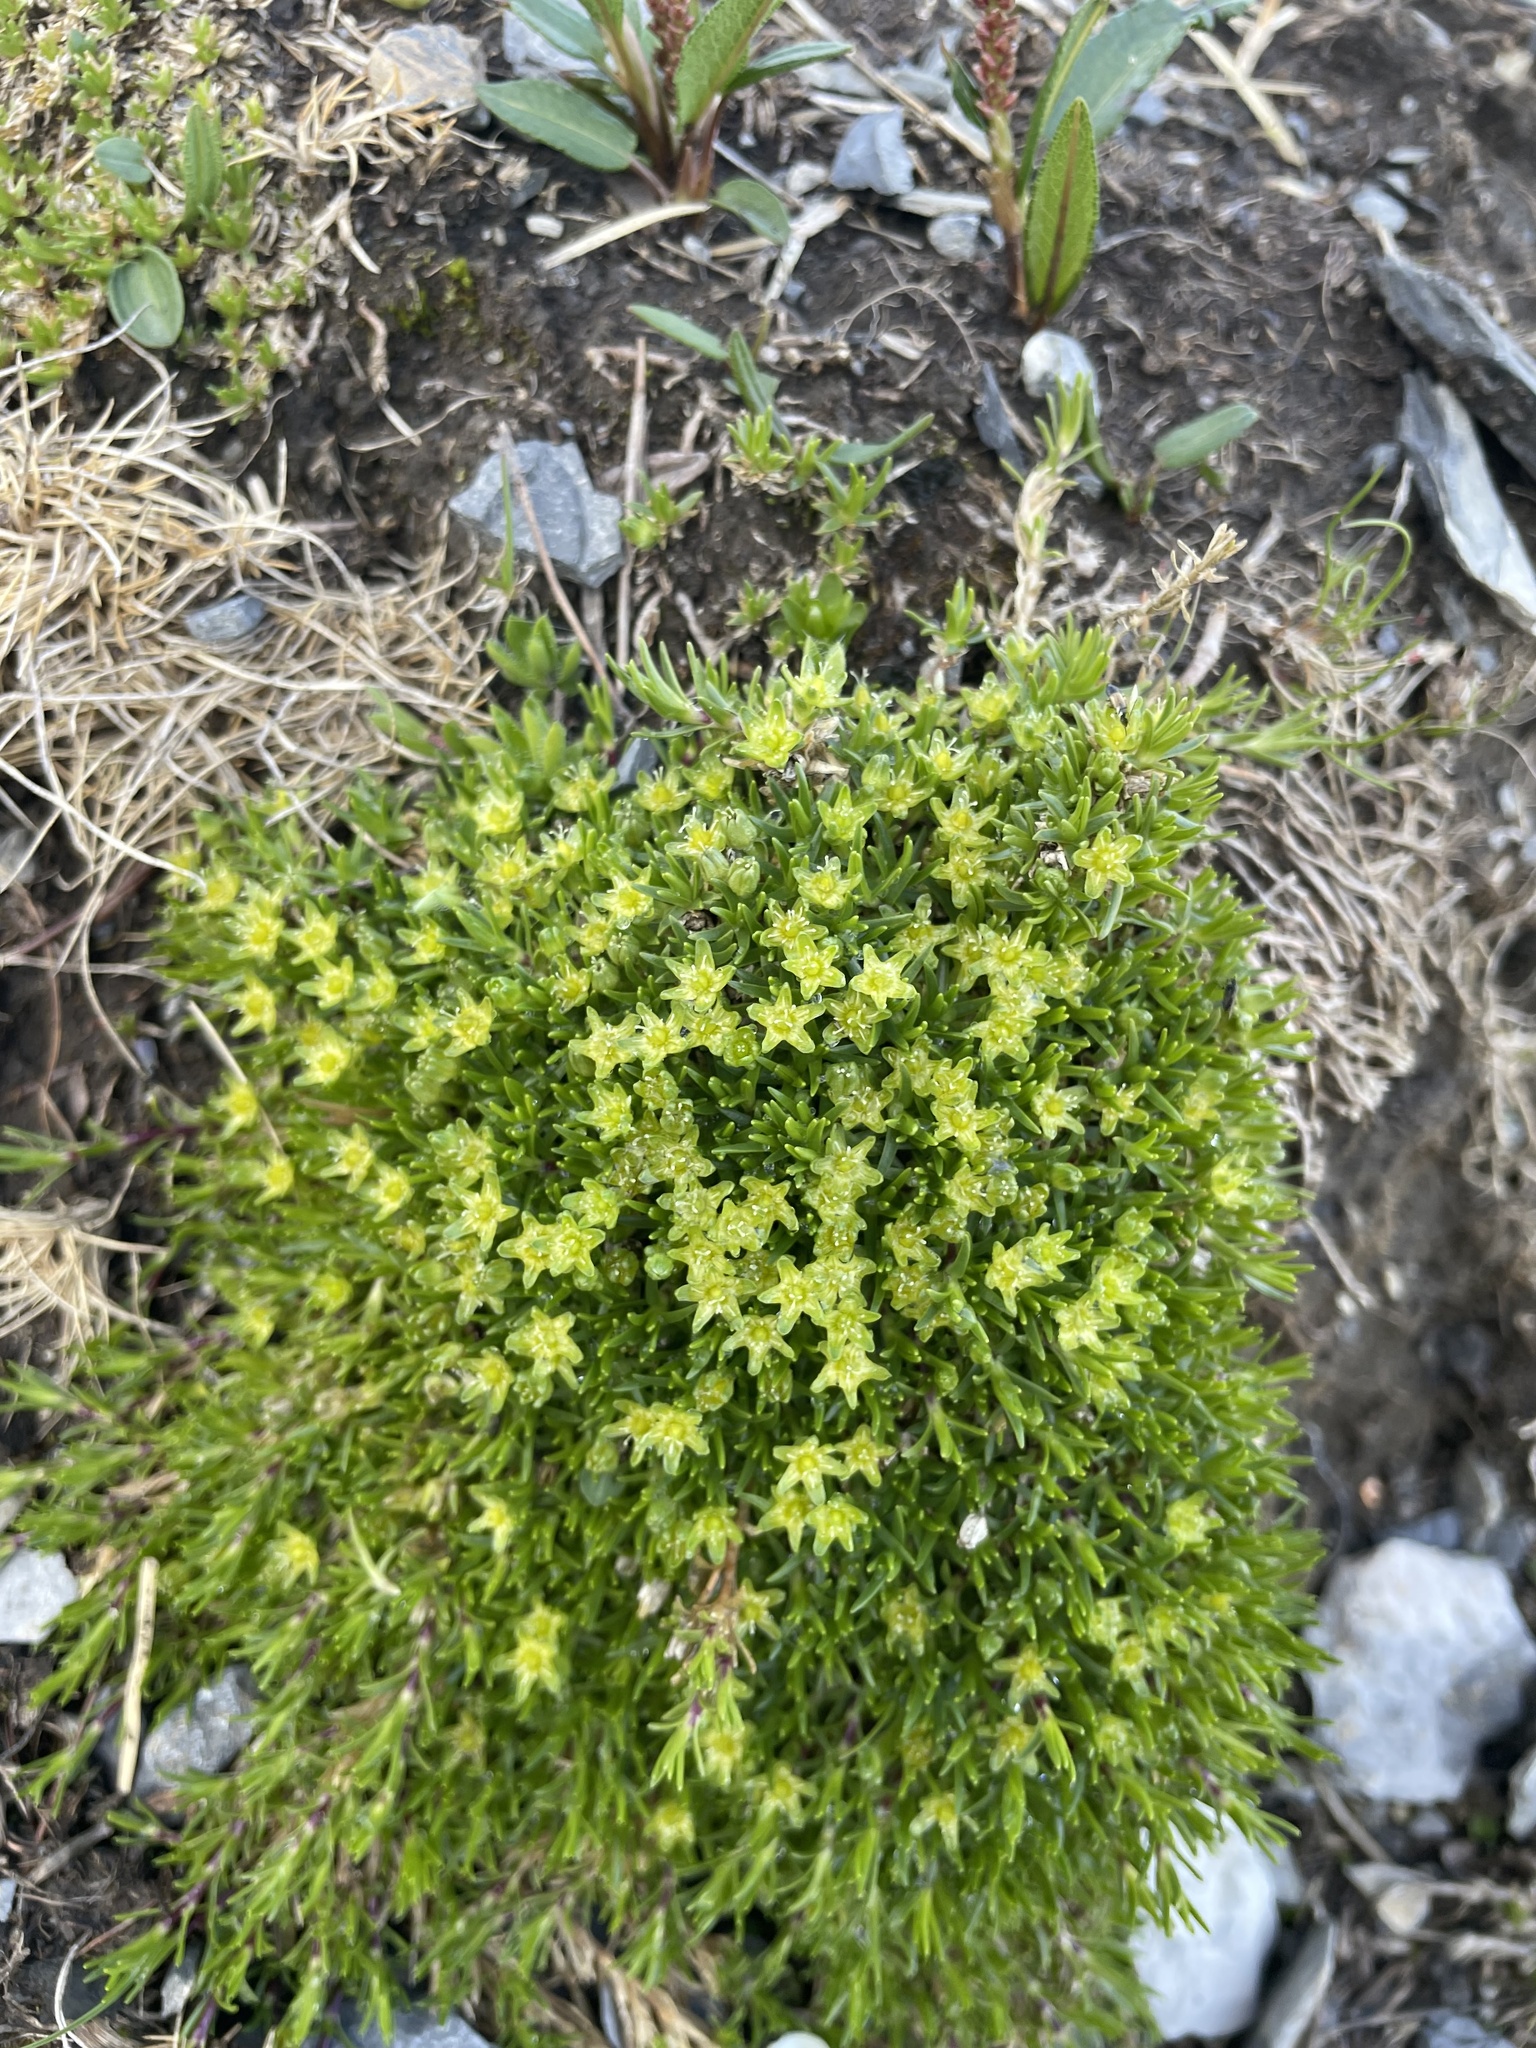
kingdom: Plantae
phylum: Tracheophyta
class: Magnoliopsida
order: Caryophyllales
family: Caryophyllaceae
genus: Cherleria
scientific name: Cherleria sedoides
